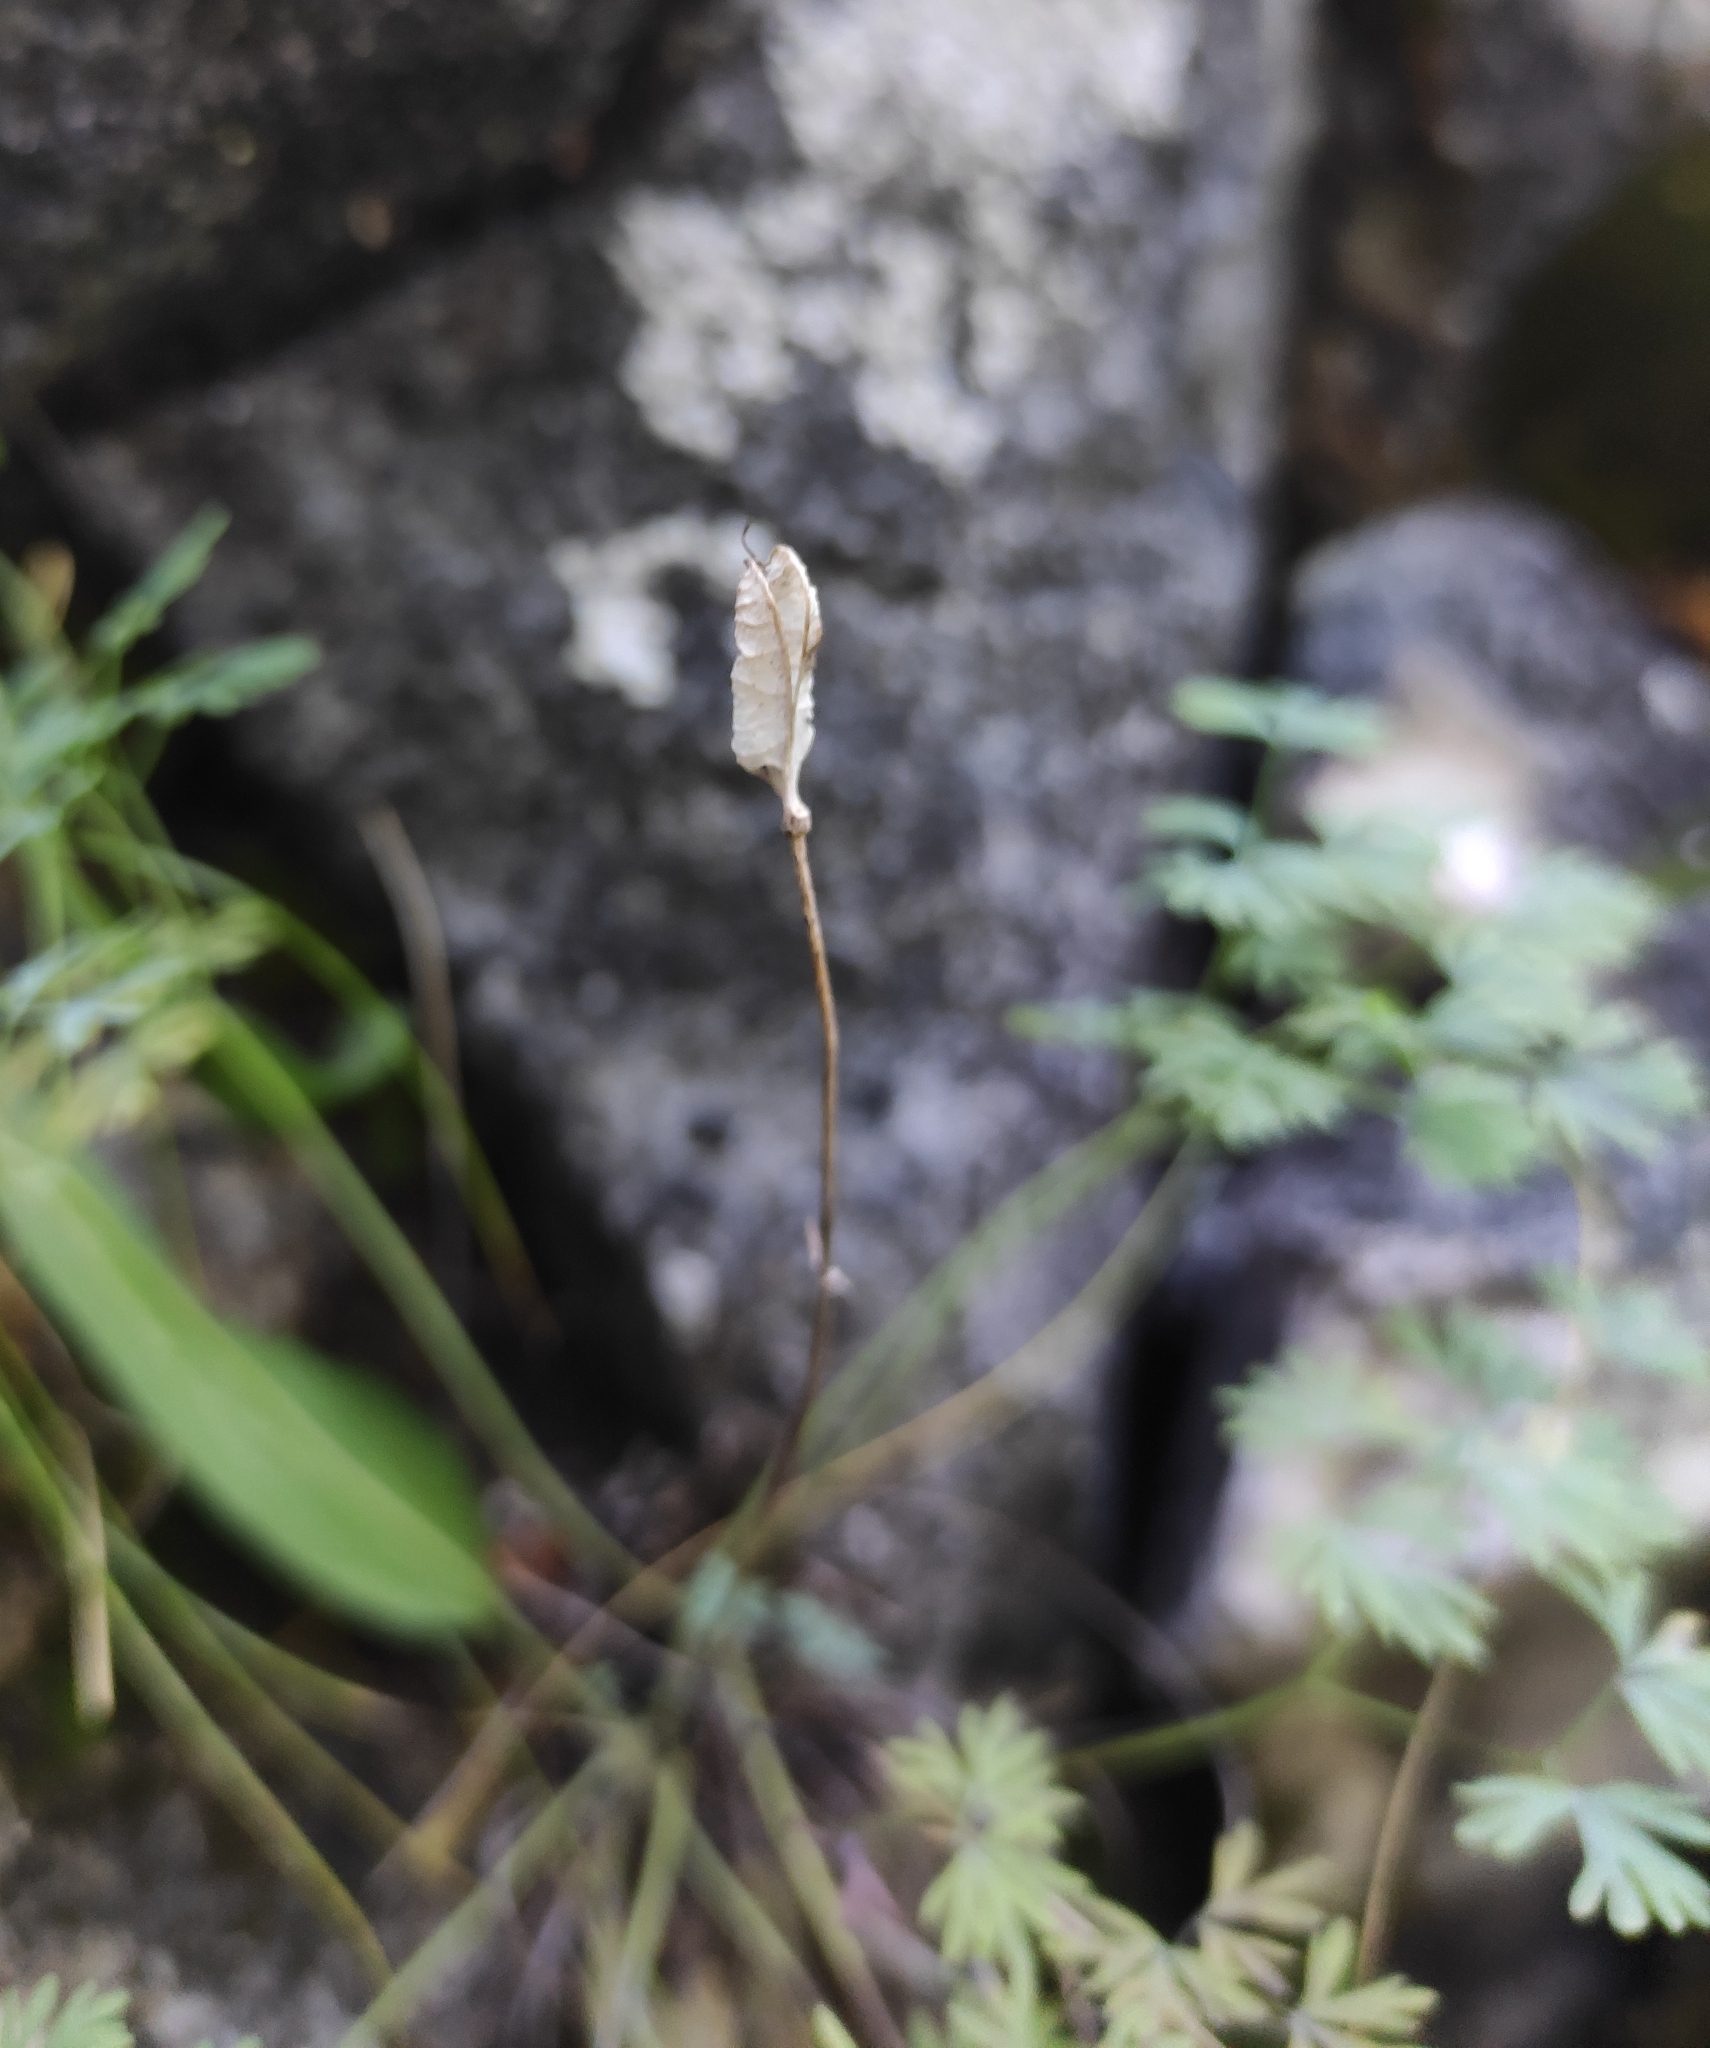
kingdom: Plantae
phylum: Tracheophyta
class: Magnoliopsida
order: Ranunculales
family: Ranunculaceae
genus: Paraquilegia
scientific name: Paraquilegia microphylla
